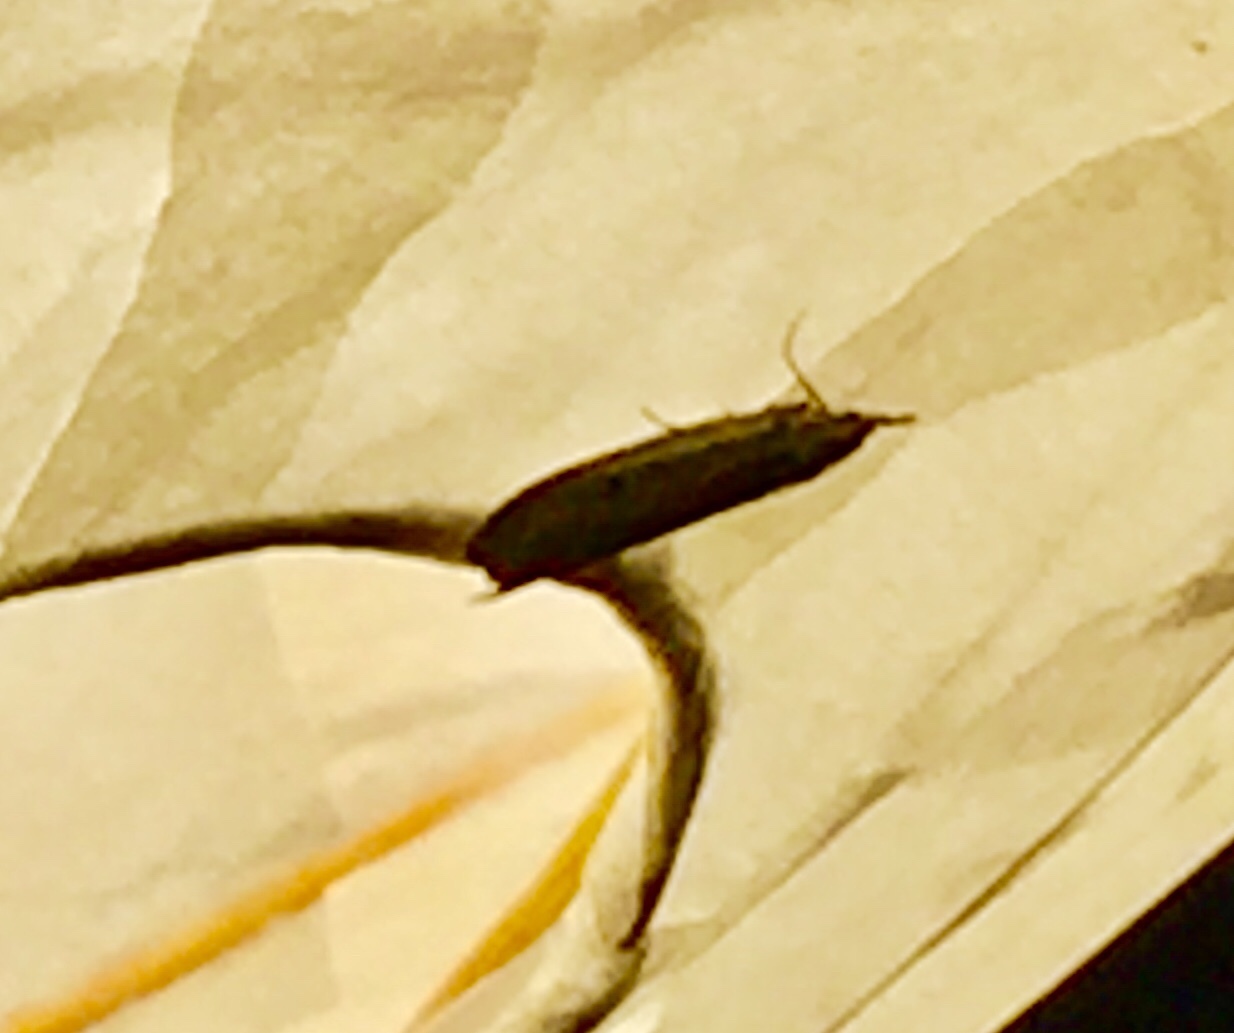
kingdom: Animalia
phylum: Arthropoda
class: Insecta
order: Lepidoptera
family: Pyralidae
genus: Aphomia
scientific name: Aphomia sociella
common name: Bee moth
